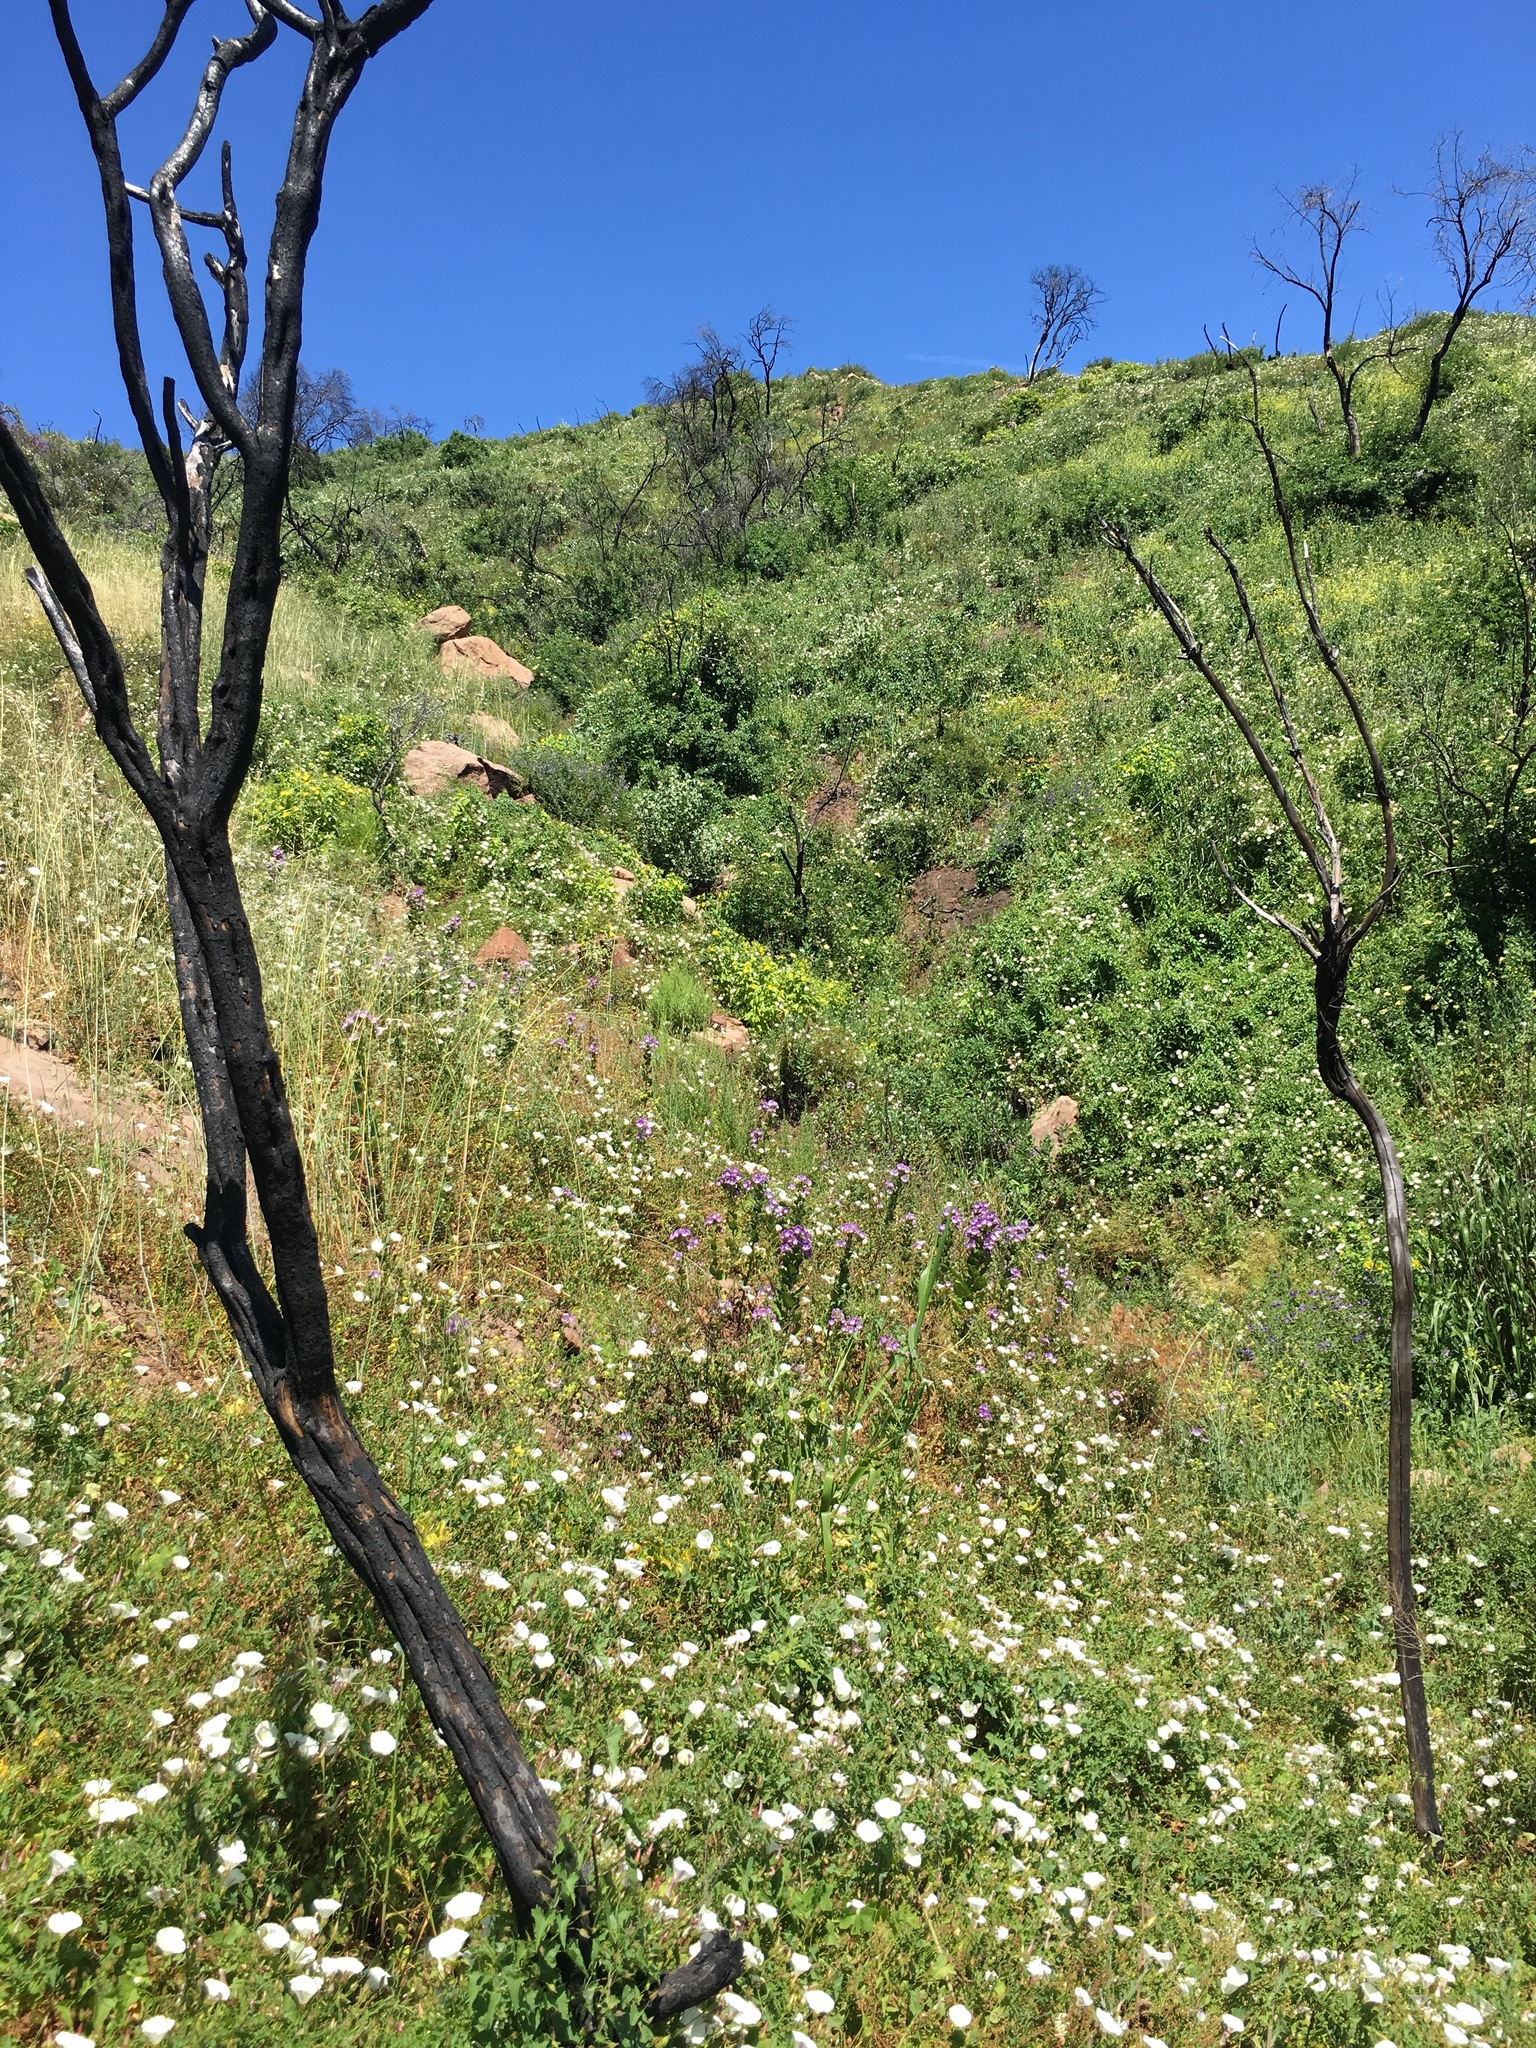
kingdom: Plantae
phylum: Tracheophyta
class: Magnoliopsida
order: Solanales
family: Convolvulaceae
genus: Calystegia
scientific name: Calystegia macrostegia
